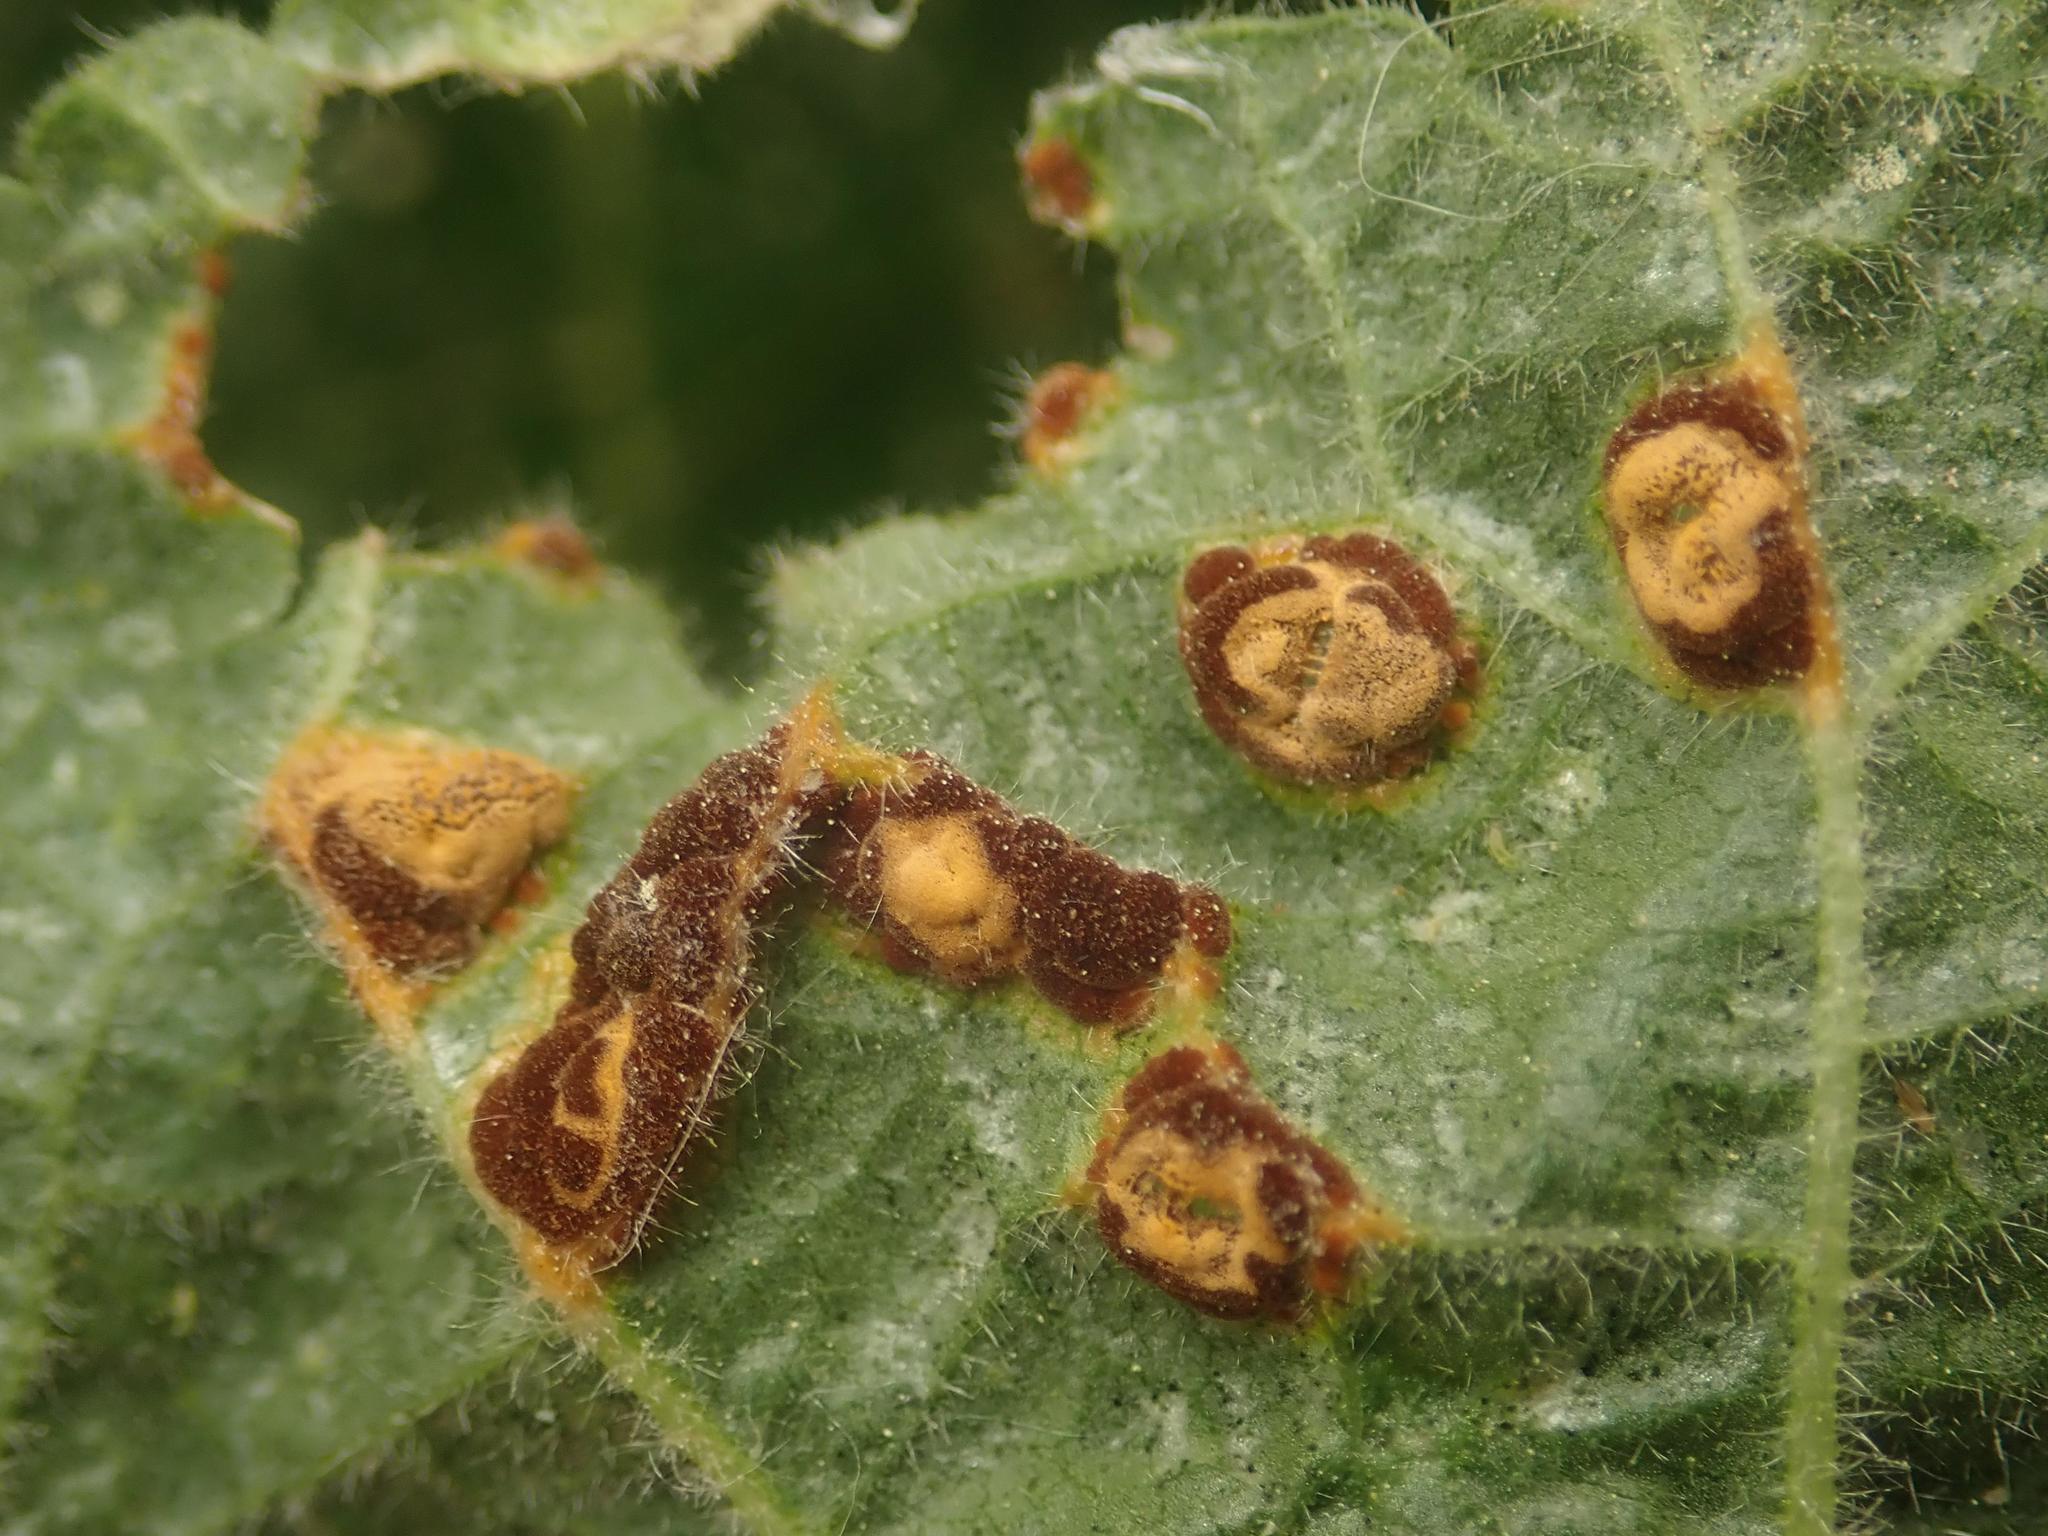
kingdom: Fungi
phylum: Basidiomycota
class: Pucciniomycetes
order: Pucciniales
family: Pucciniaceae
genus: Puccinia
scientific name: Puccinia malvacearum
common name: Hollyhock rust
